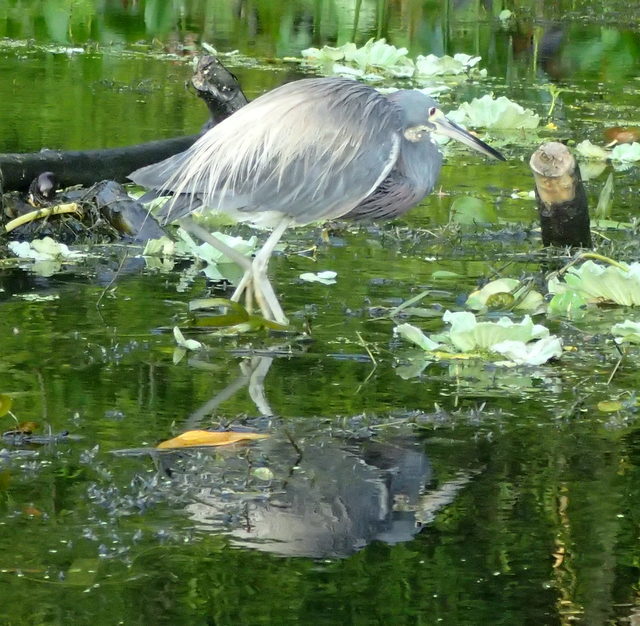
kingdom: Animalia
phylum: Chordata
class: Aves
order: Pelecaniformes
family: Ardeidae
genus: Egretta
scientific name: Egretta tricolor
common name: Tricolored heron
